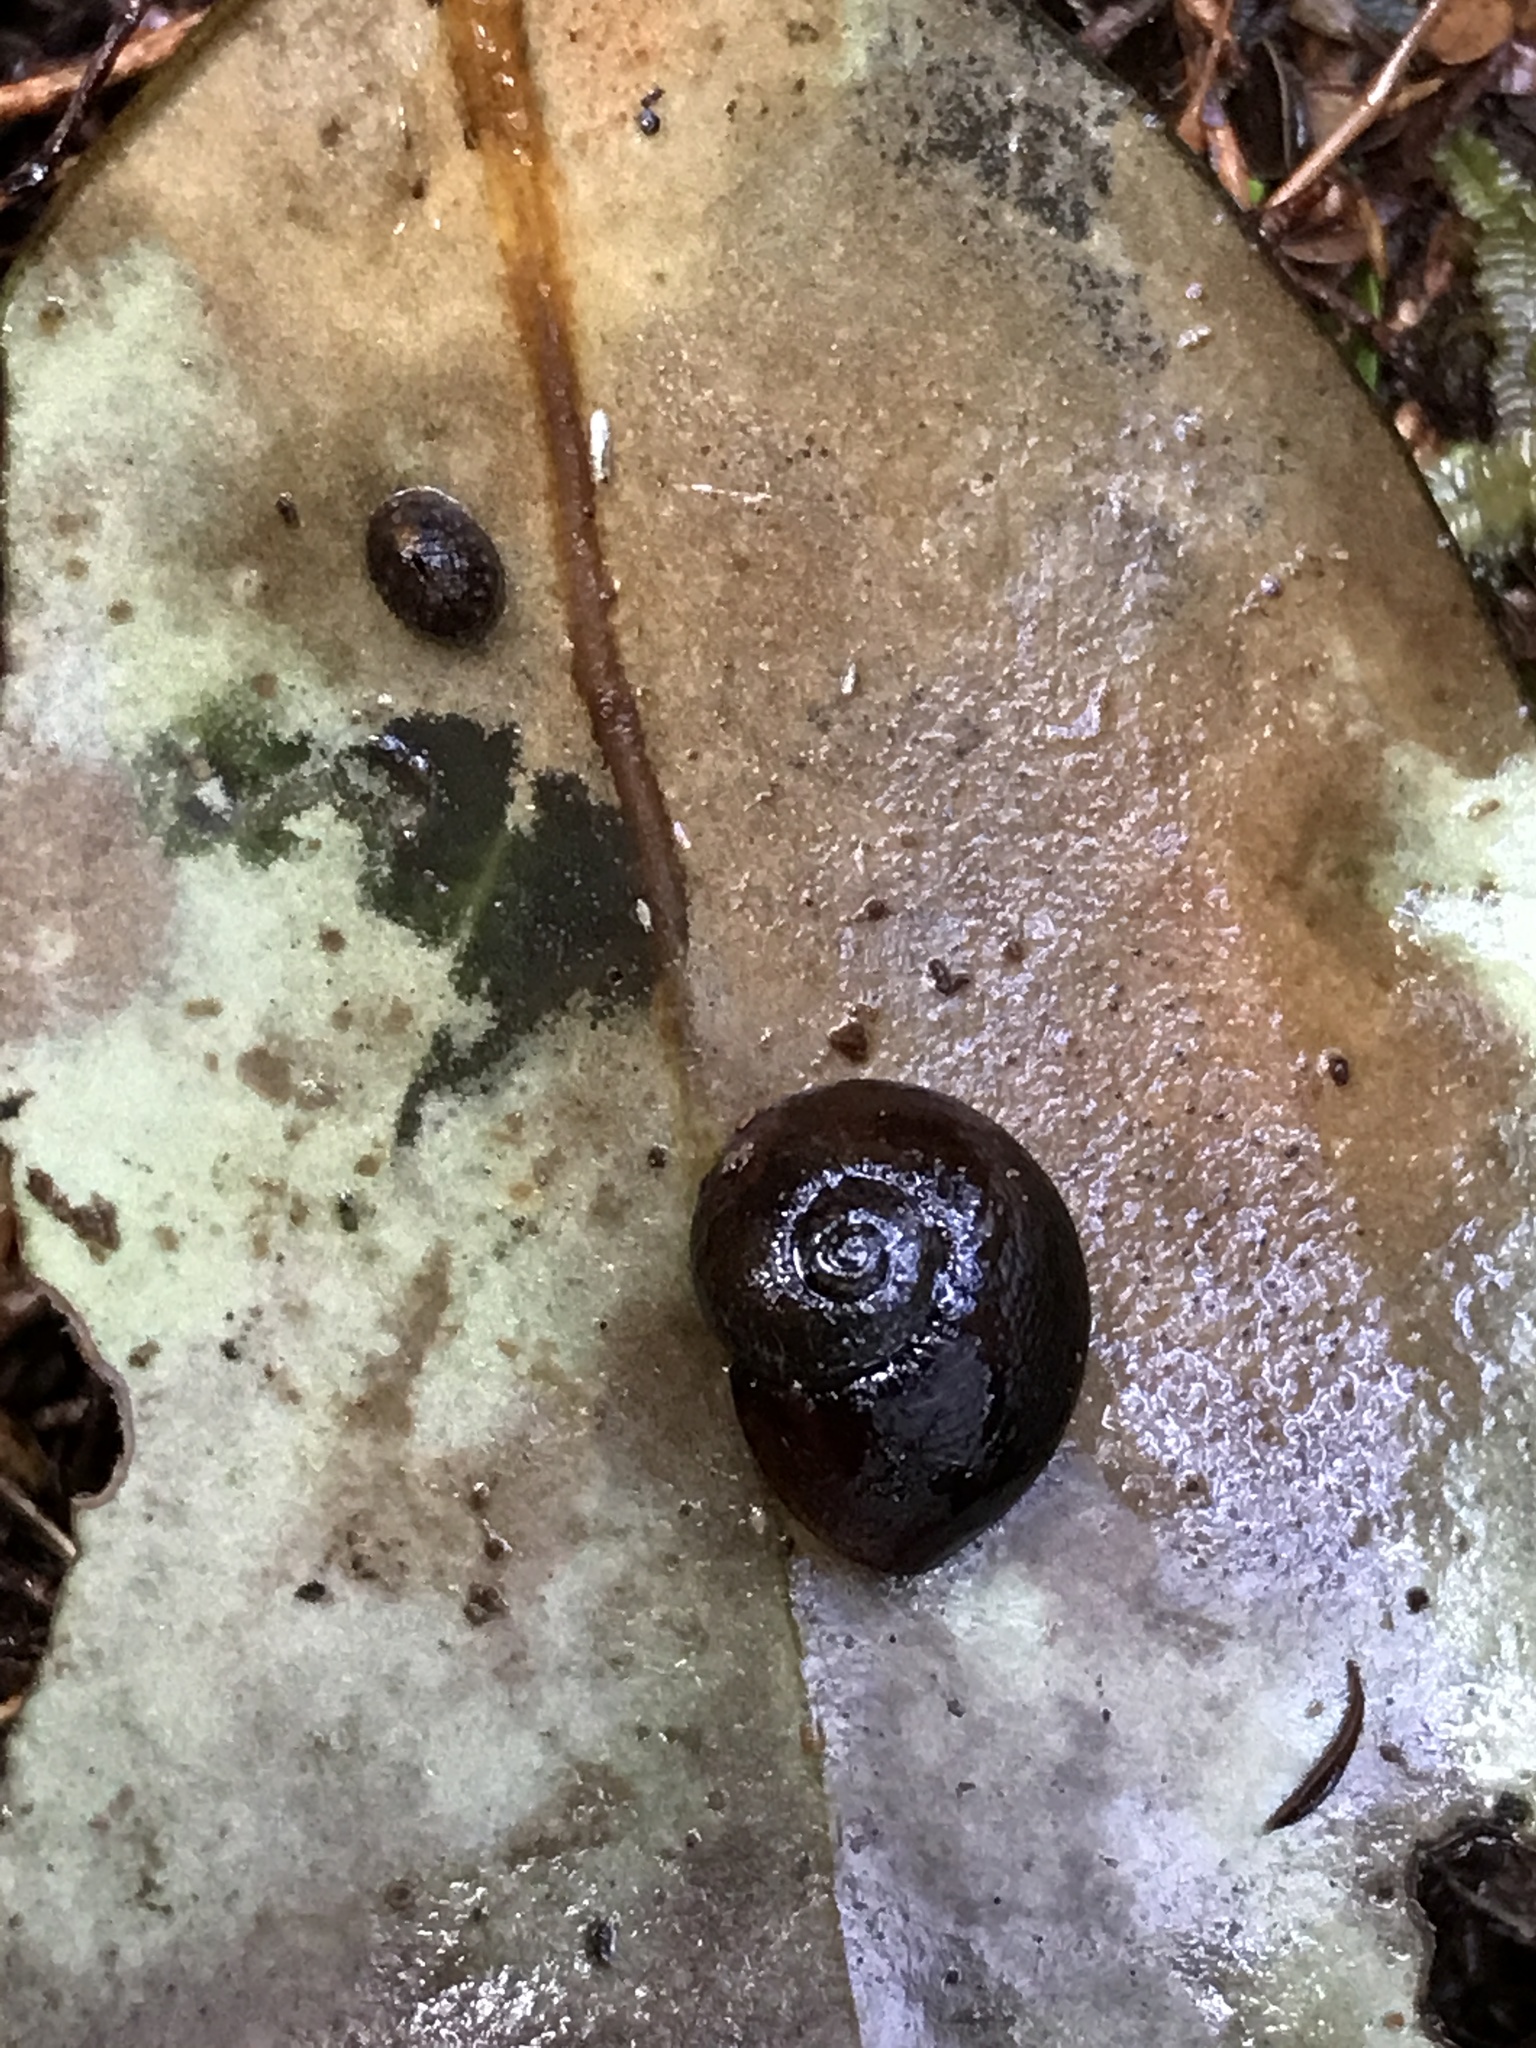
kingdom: Animalia
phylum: Mollusca
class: Gastropoda
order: Stylommatophora
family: Rhytididae
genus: Rhytida
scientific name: Rhytida australis
